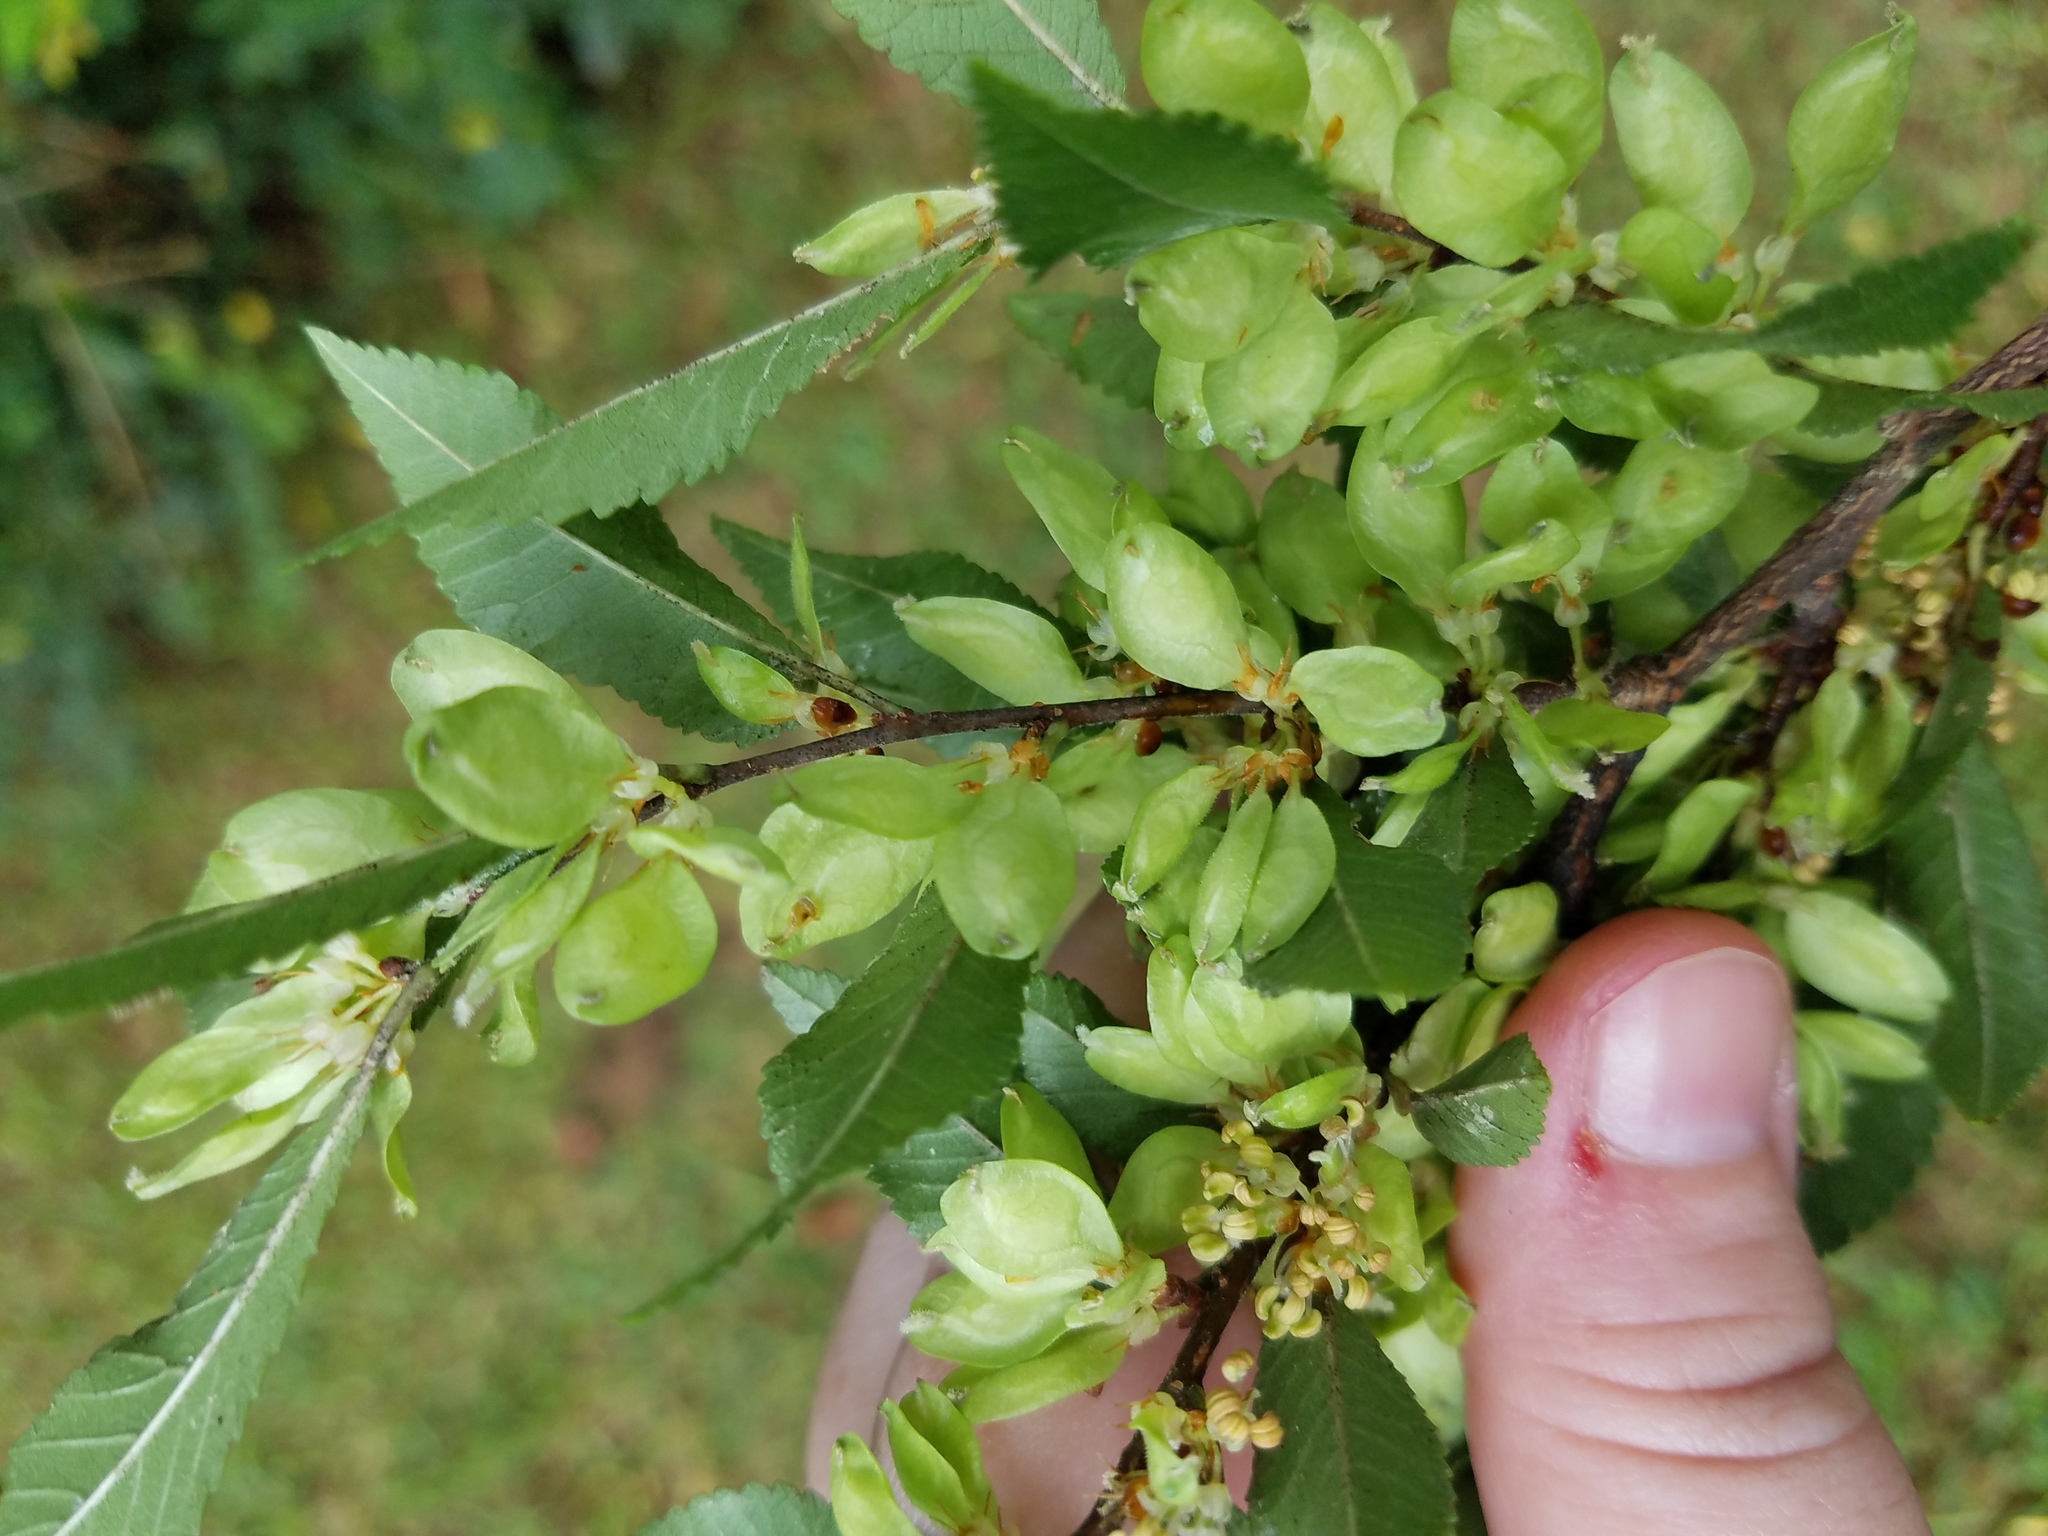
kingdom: Plantae
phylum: Tracheophyta
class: Magnoliopsida
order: Rosales
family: Ulmaceae
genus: Ulmus
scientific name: Ulmus parvifolia
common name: Chinese elm
